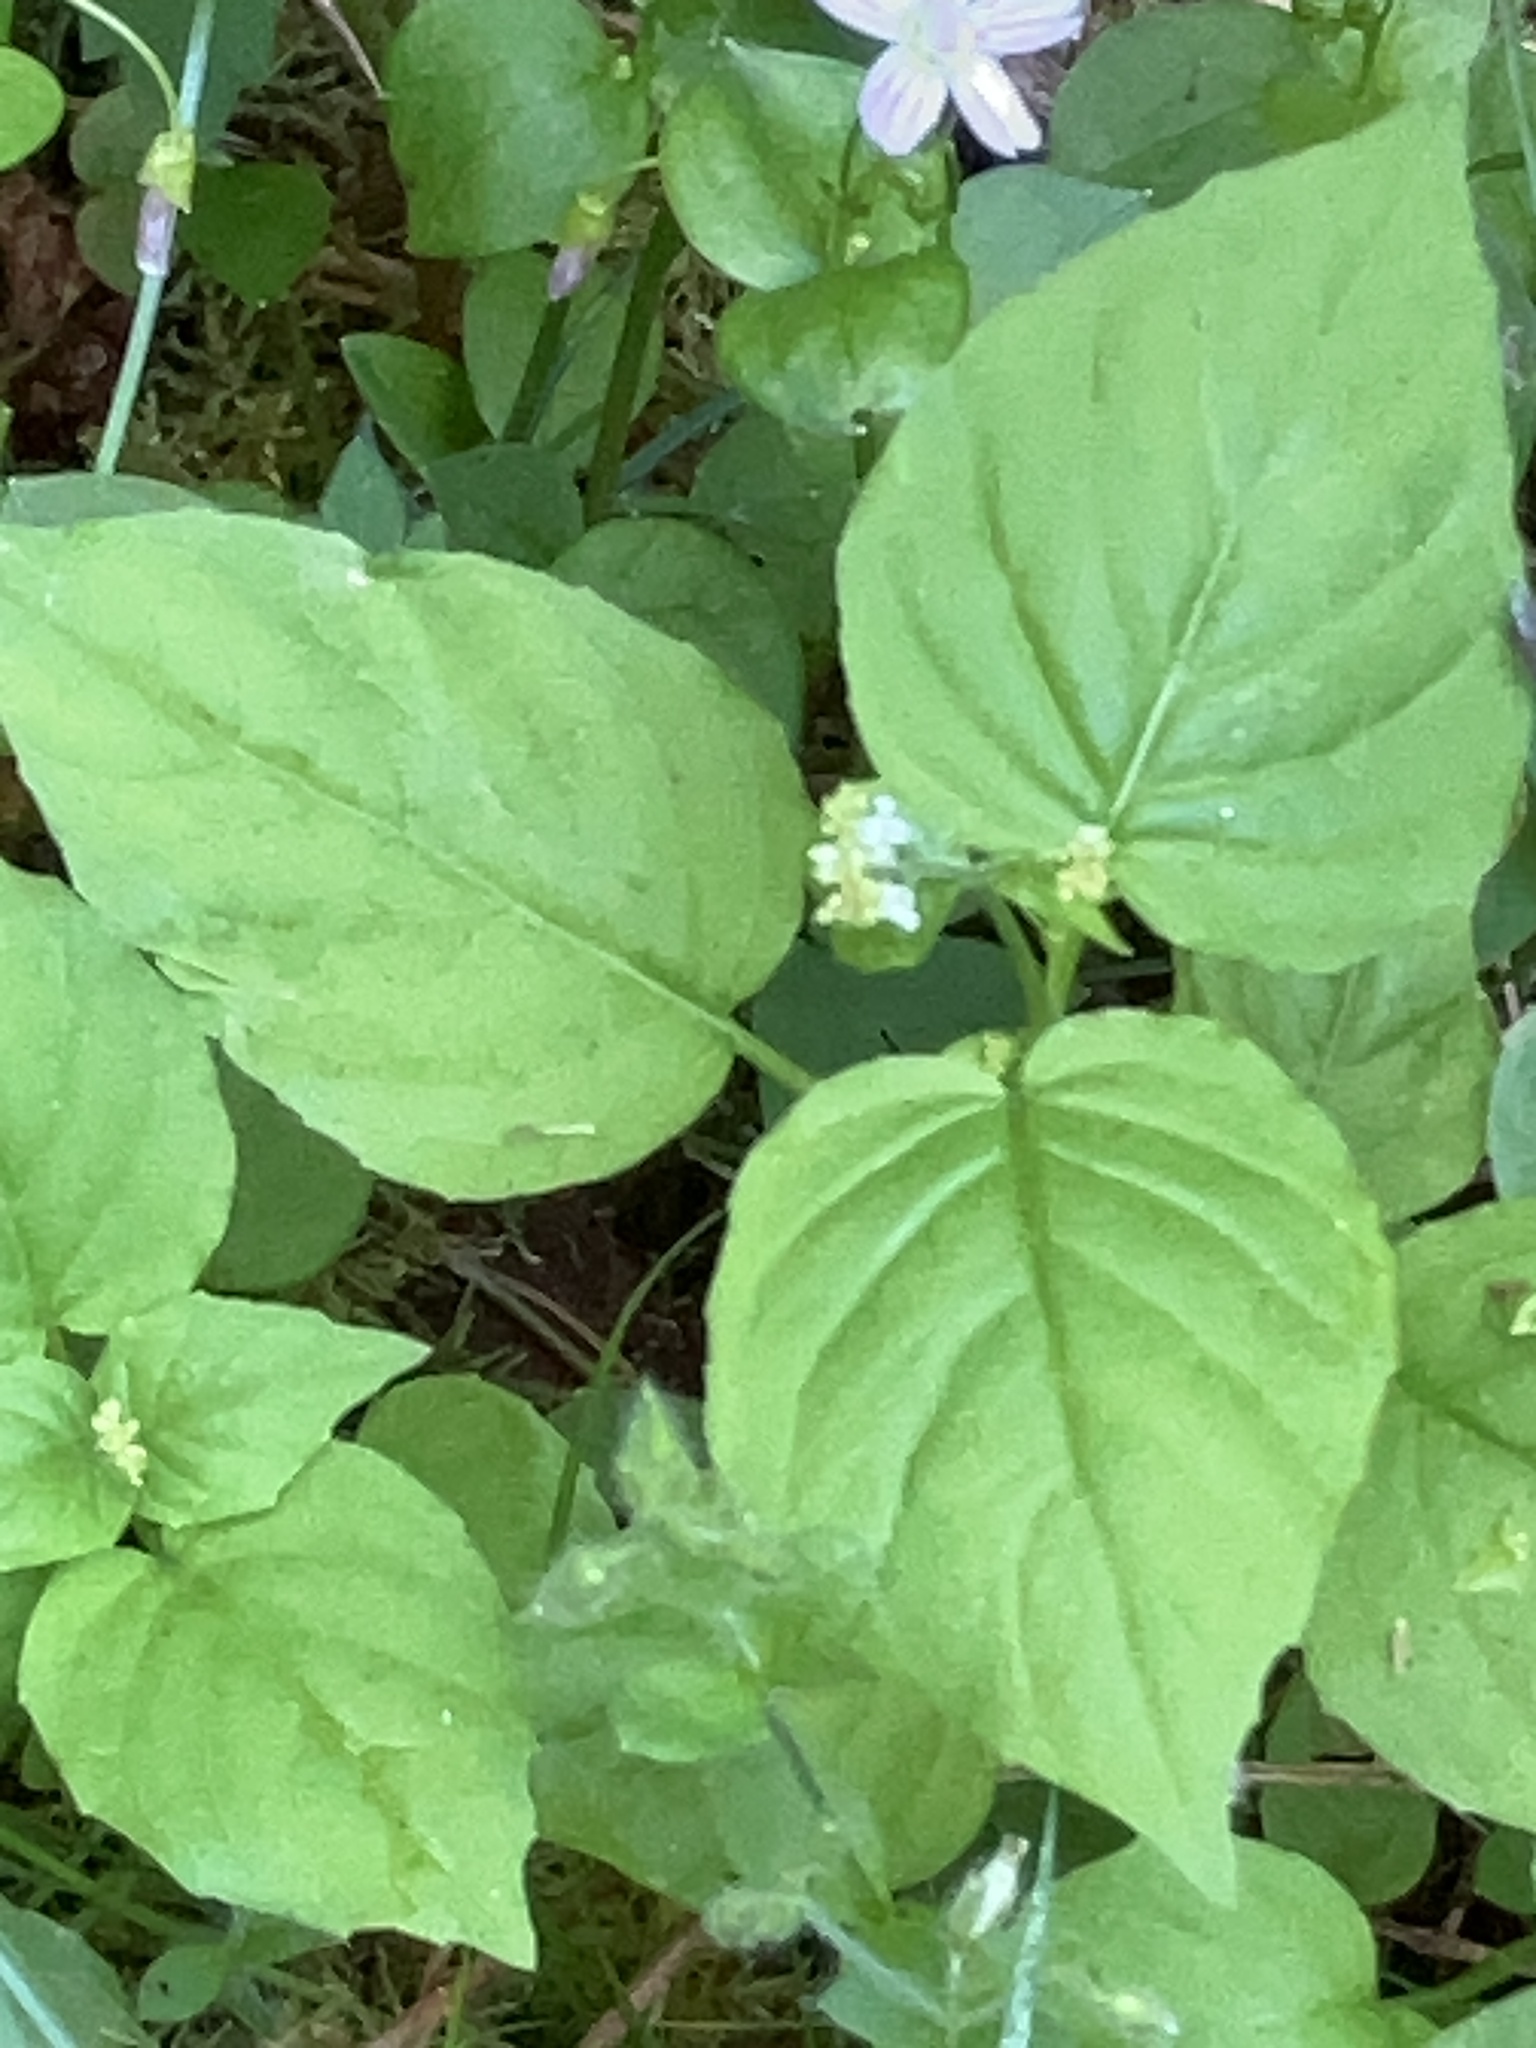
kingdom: Plantae
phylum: Tracheophyta
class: Magnoliopsida
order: Myrtales
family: Onagraceae
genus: Circaea
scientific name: Circaea alpina
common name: Alpine enchanter's-nightshade
